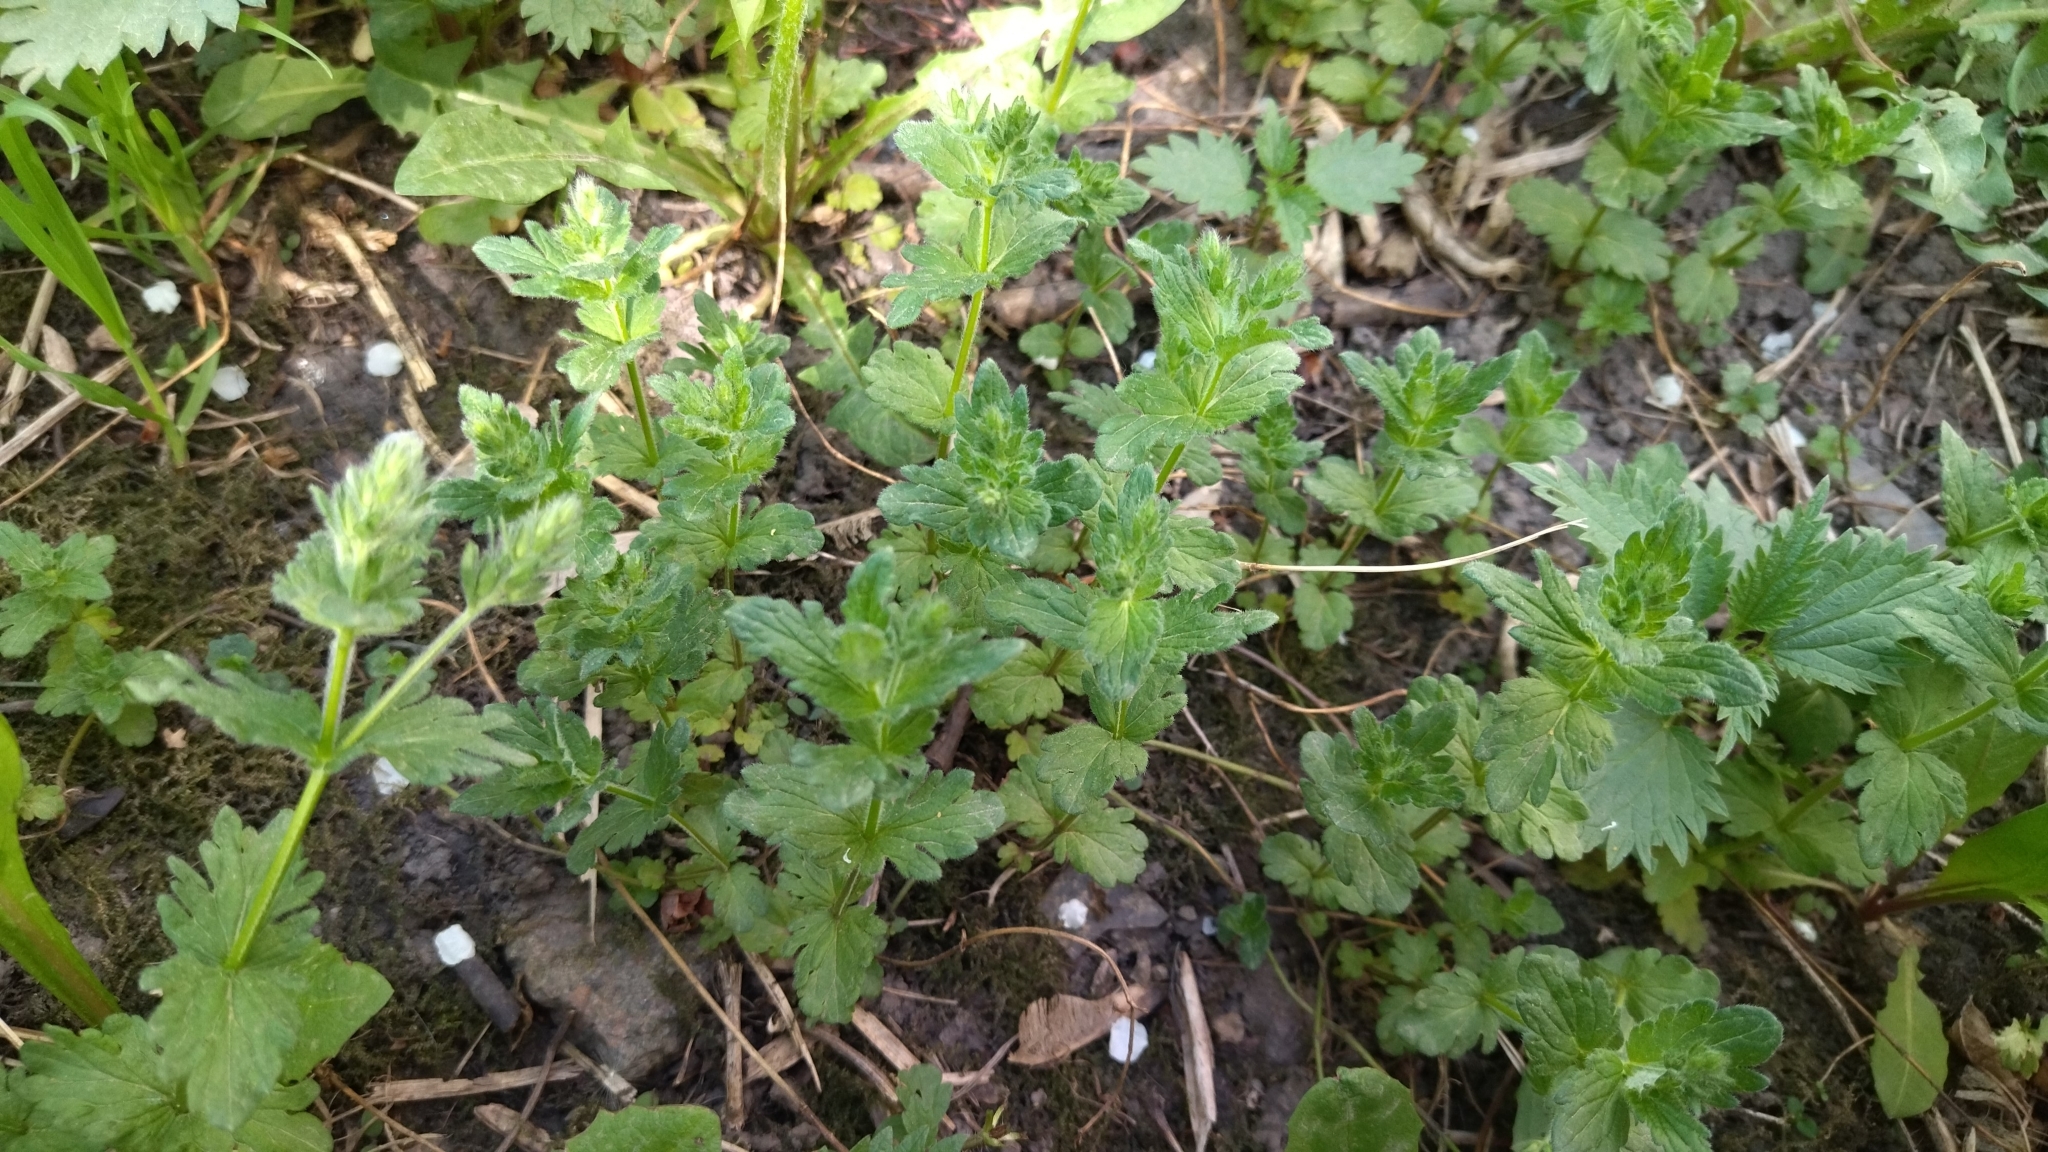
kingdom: Plantae
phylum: Tracheophyta
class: Magnoliopsida
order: Lamiales
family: Plantaginaceae
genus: Veronica
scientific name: Veronica chamaedrys
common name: Germander speedwell
